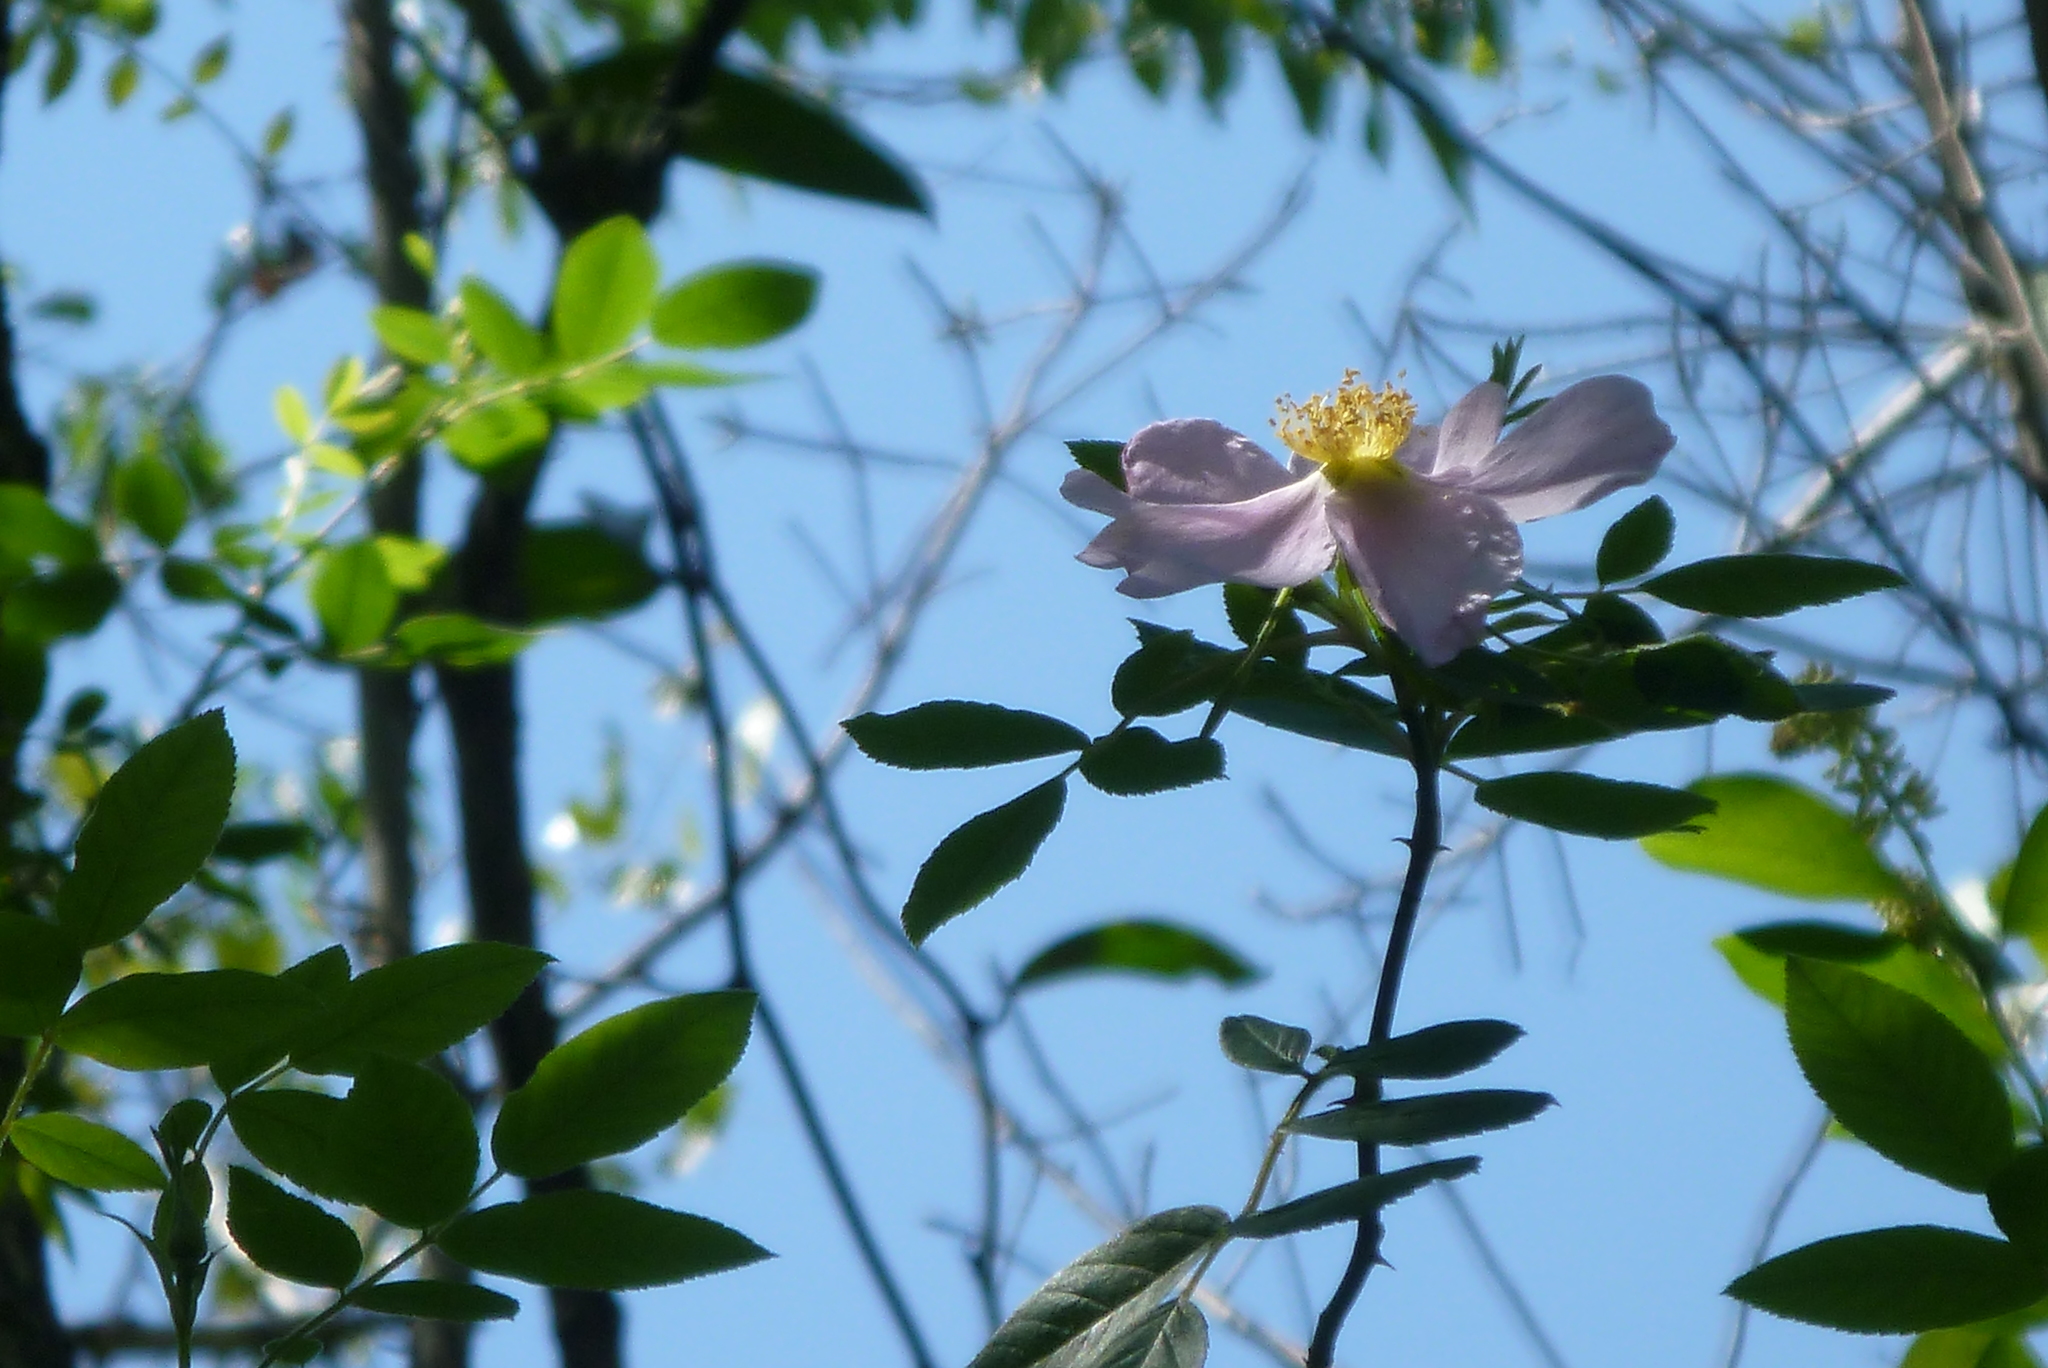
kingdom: Plantae
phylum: Tracheophyta
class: Magnoliopsida
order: Rosales
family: Rosaceae
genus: Rosa
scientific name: Rosa palustris
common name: Swamp rose
